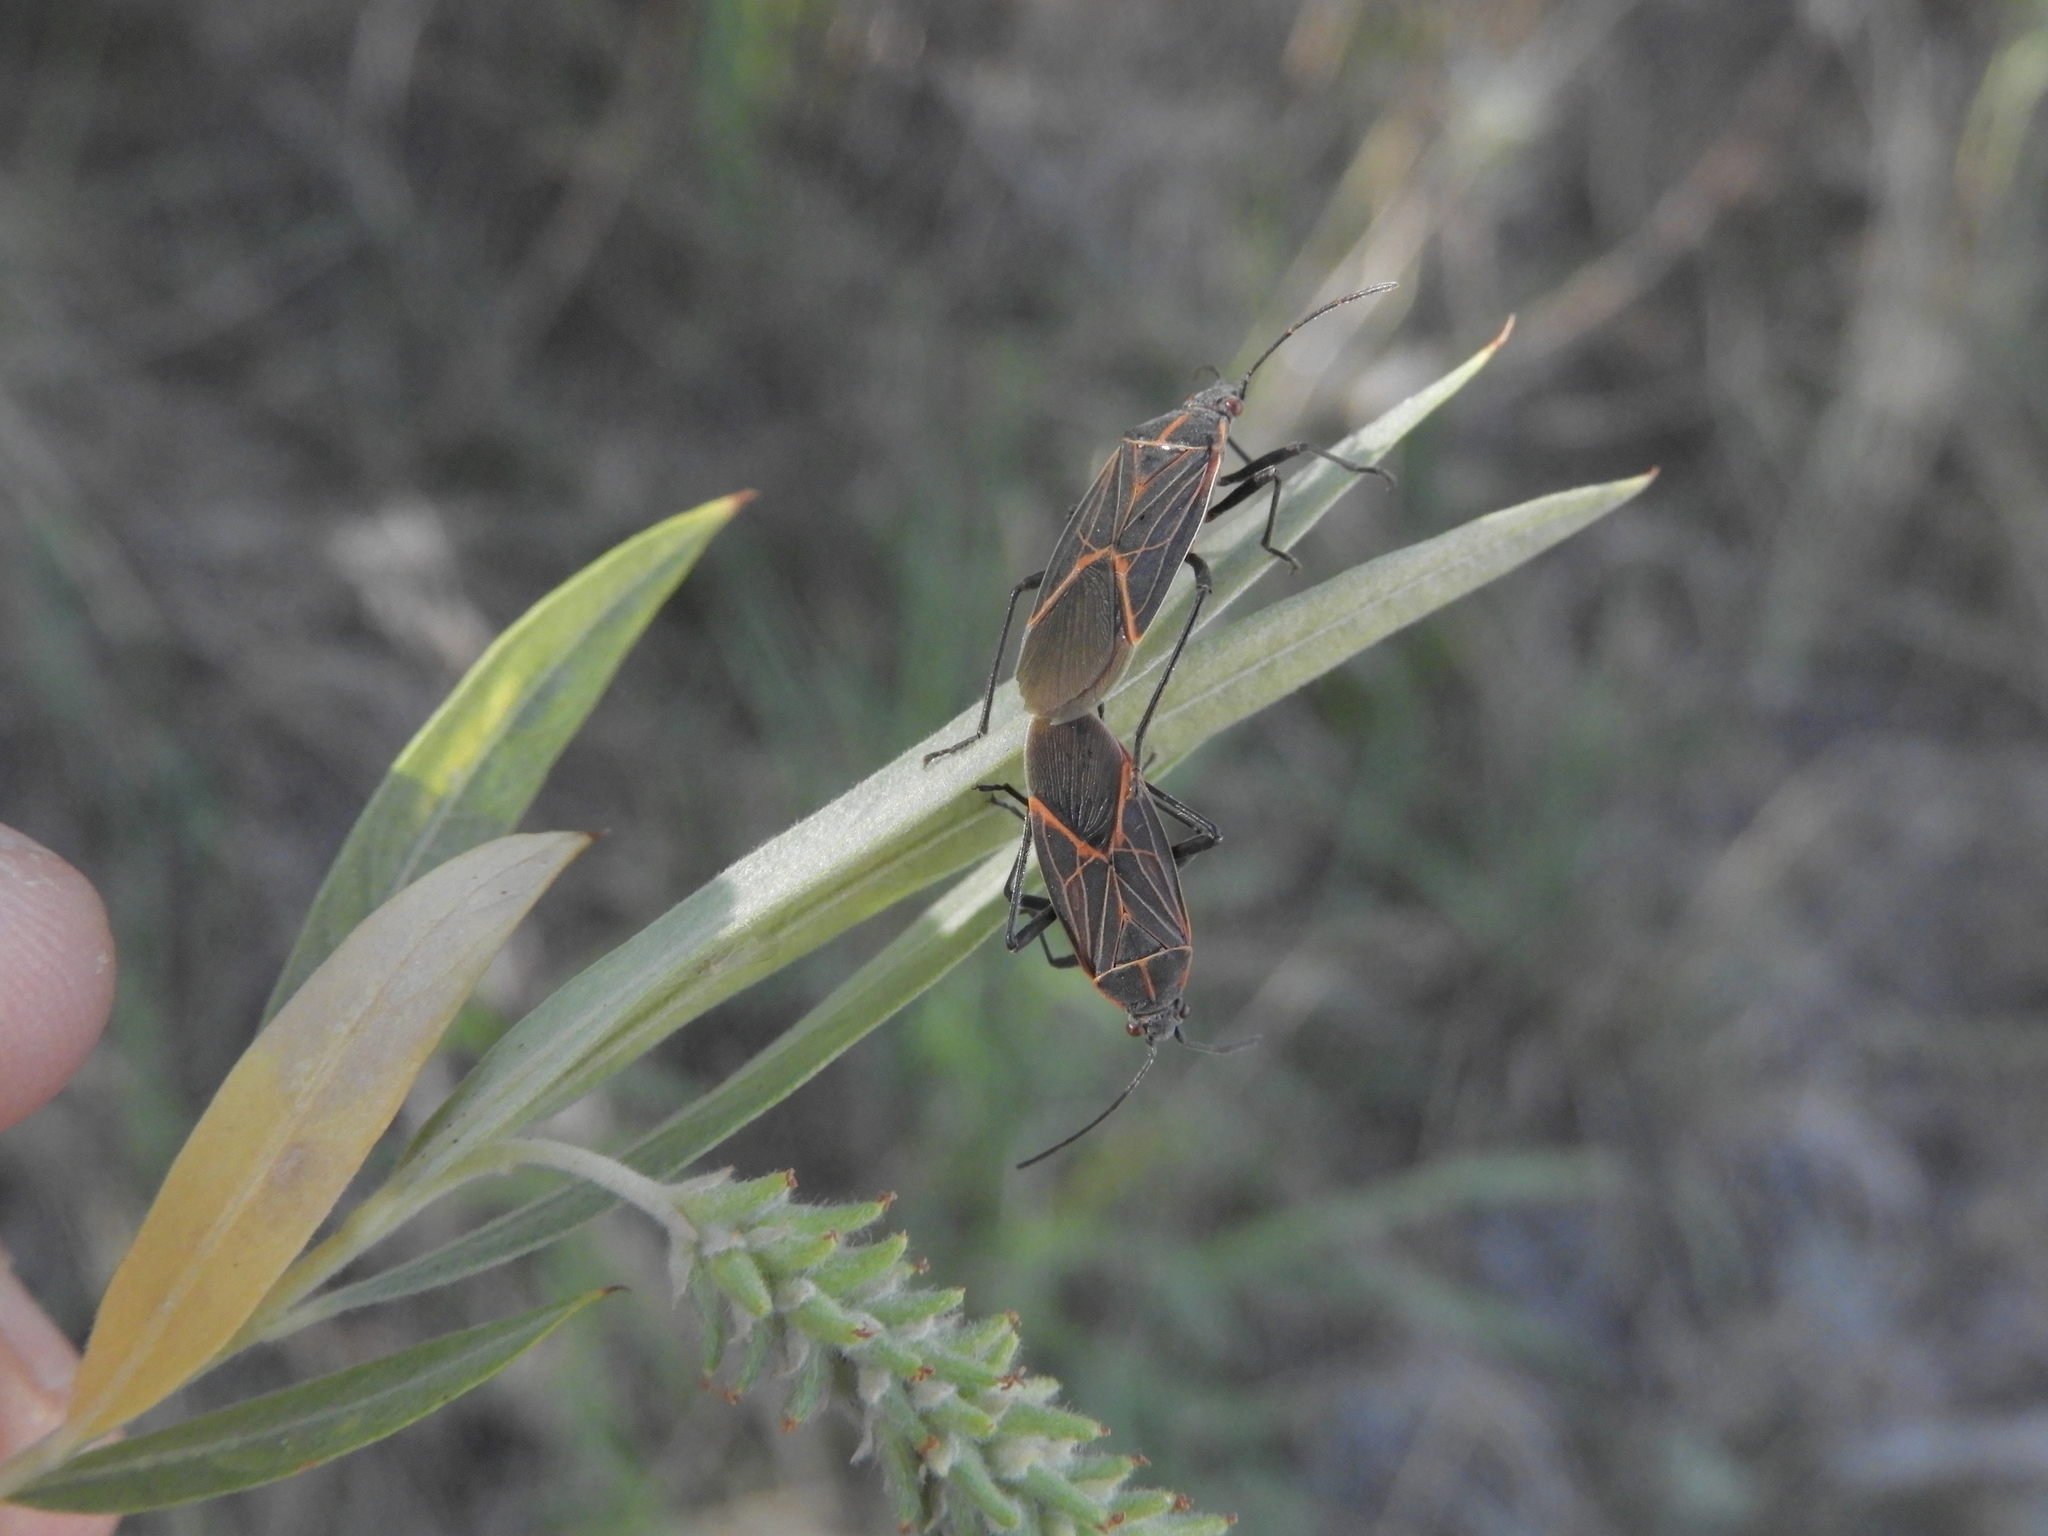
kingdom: Animalia
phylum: Arthropoda
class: Insecta
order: Hemiptera
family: Rhopalidae
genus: Boisea
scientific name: Boisea rubrolineata
